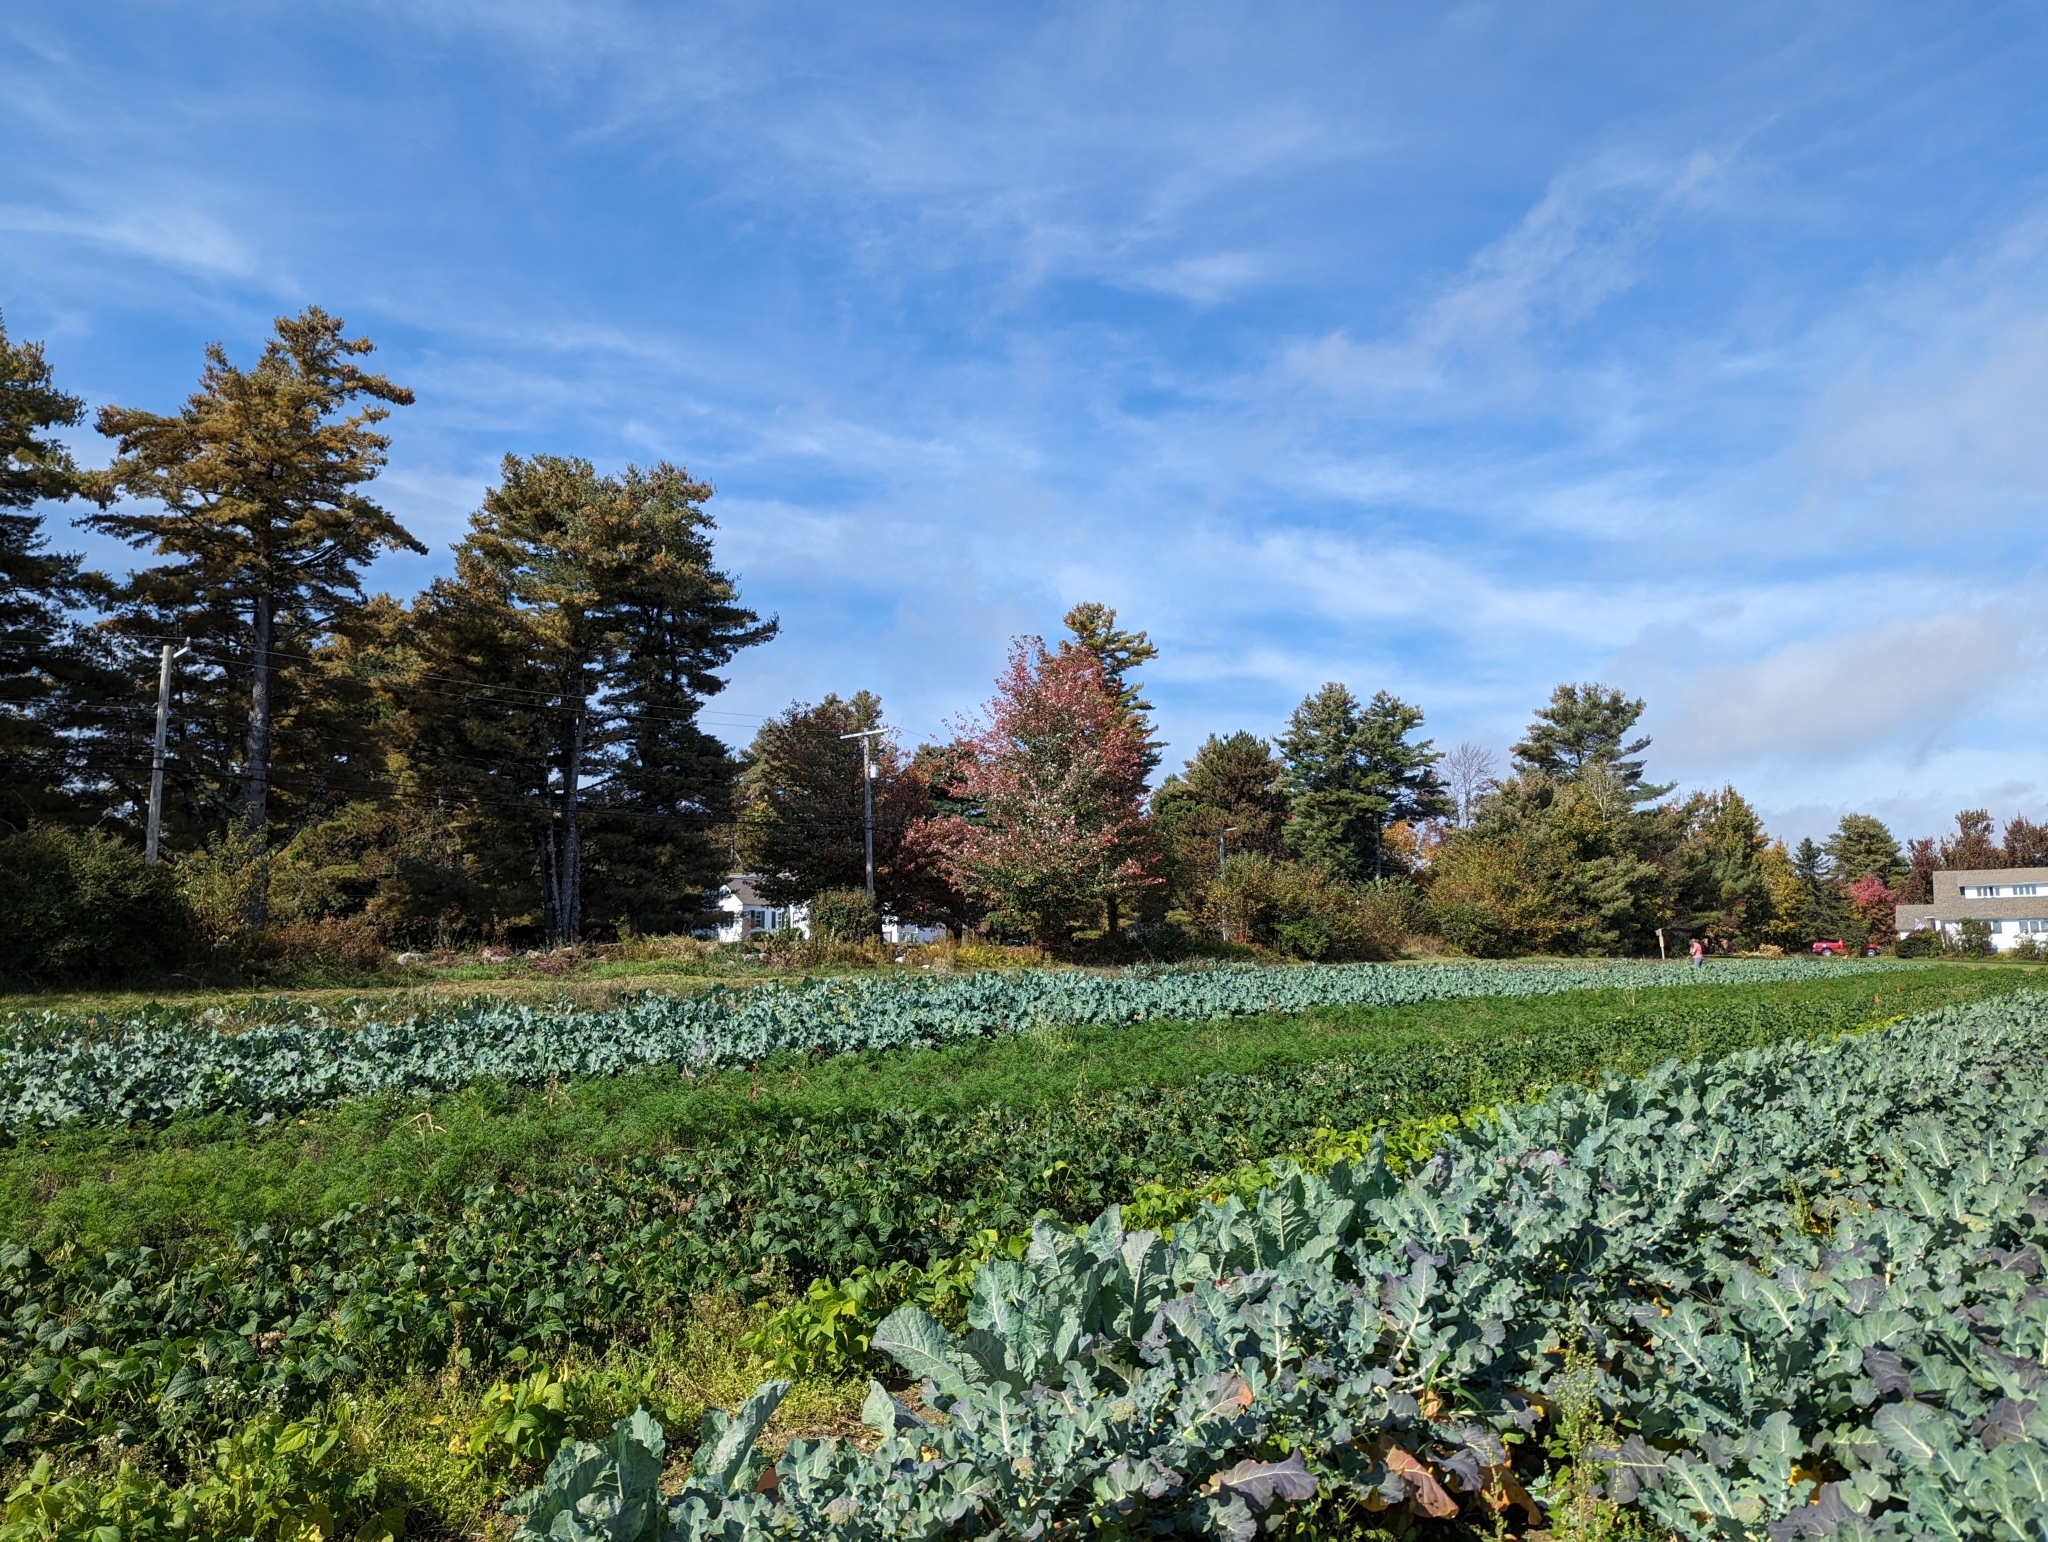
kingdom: Plantae
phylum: Tracheophyta
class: Pinopsida
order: Pinales
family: Pinaceae
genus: Pinus
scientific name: Pinus strobus
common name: Weymouth pine
